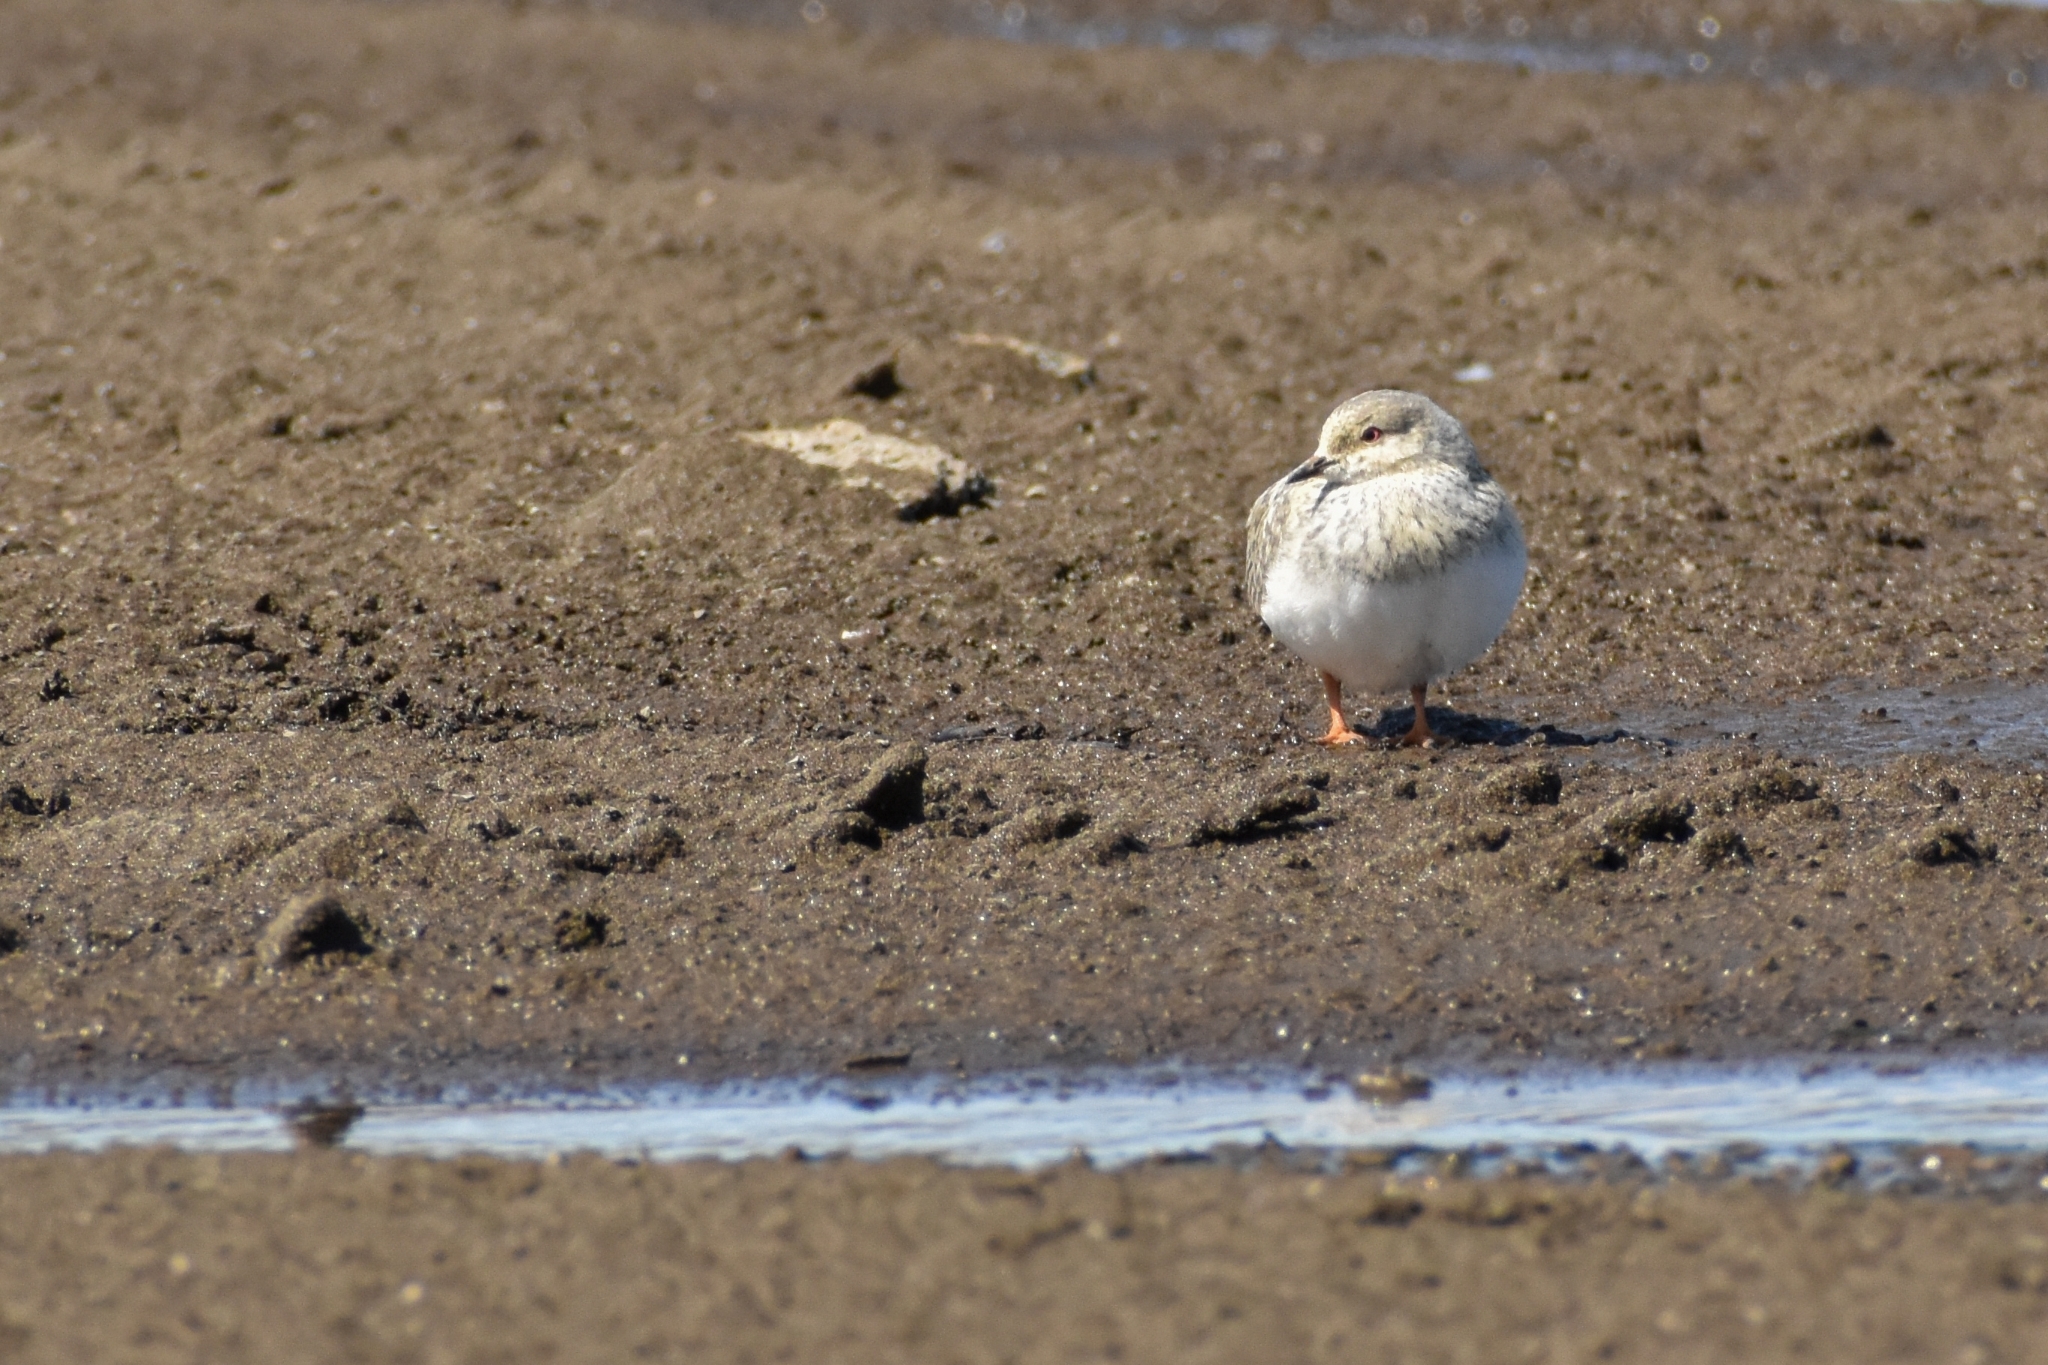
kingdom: Animalia
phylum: Chordata
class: Aves
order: Charadriiformes
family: Pluvianellidae
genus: Pluvianellus
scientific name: Pluvianellus socialis
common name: Magellanic plover
